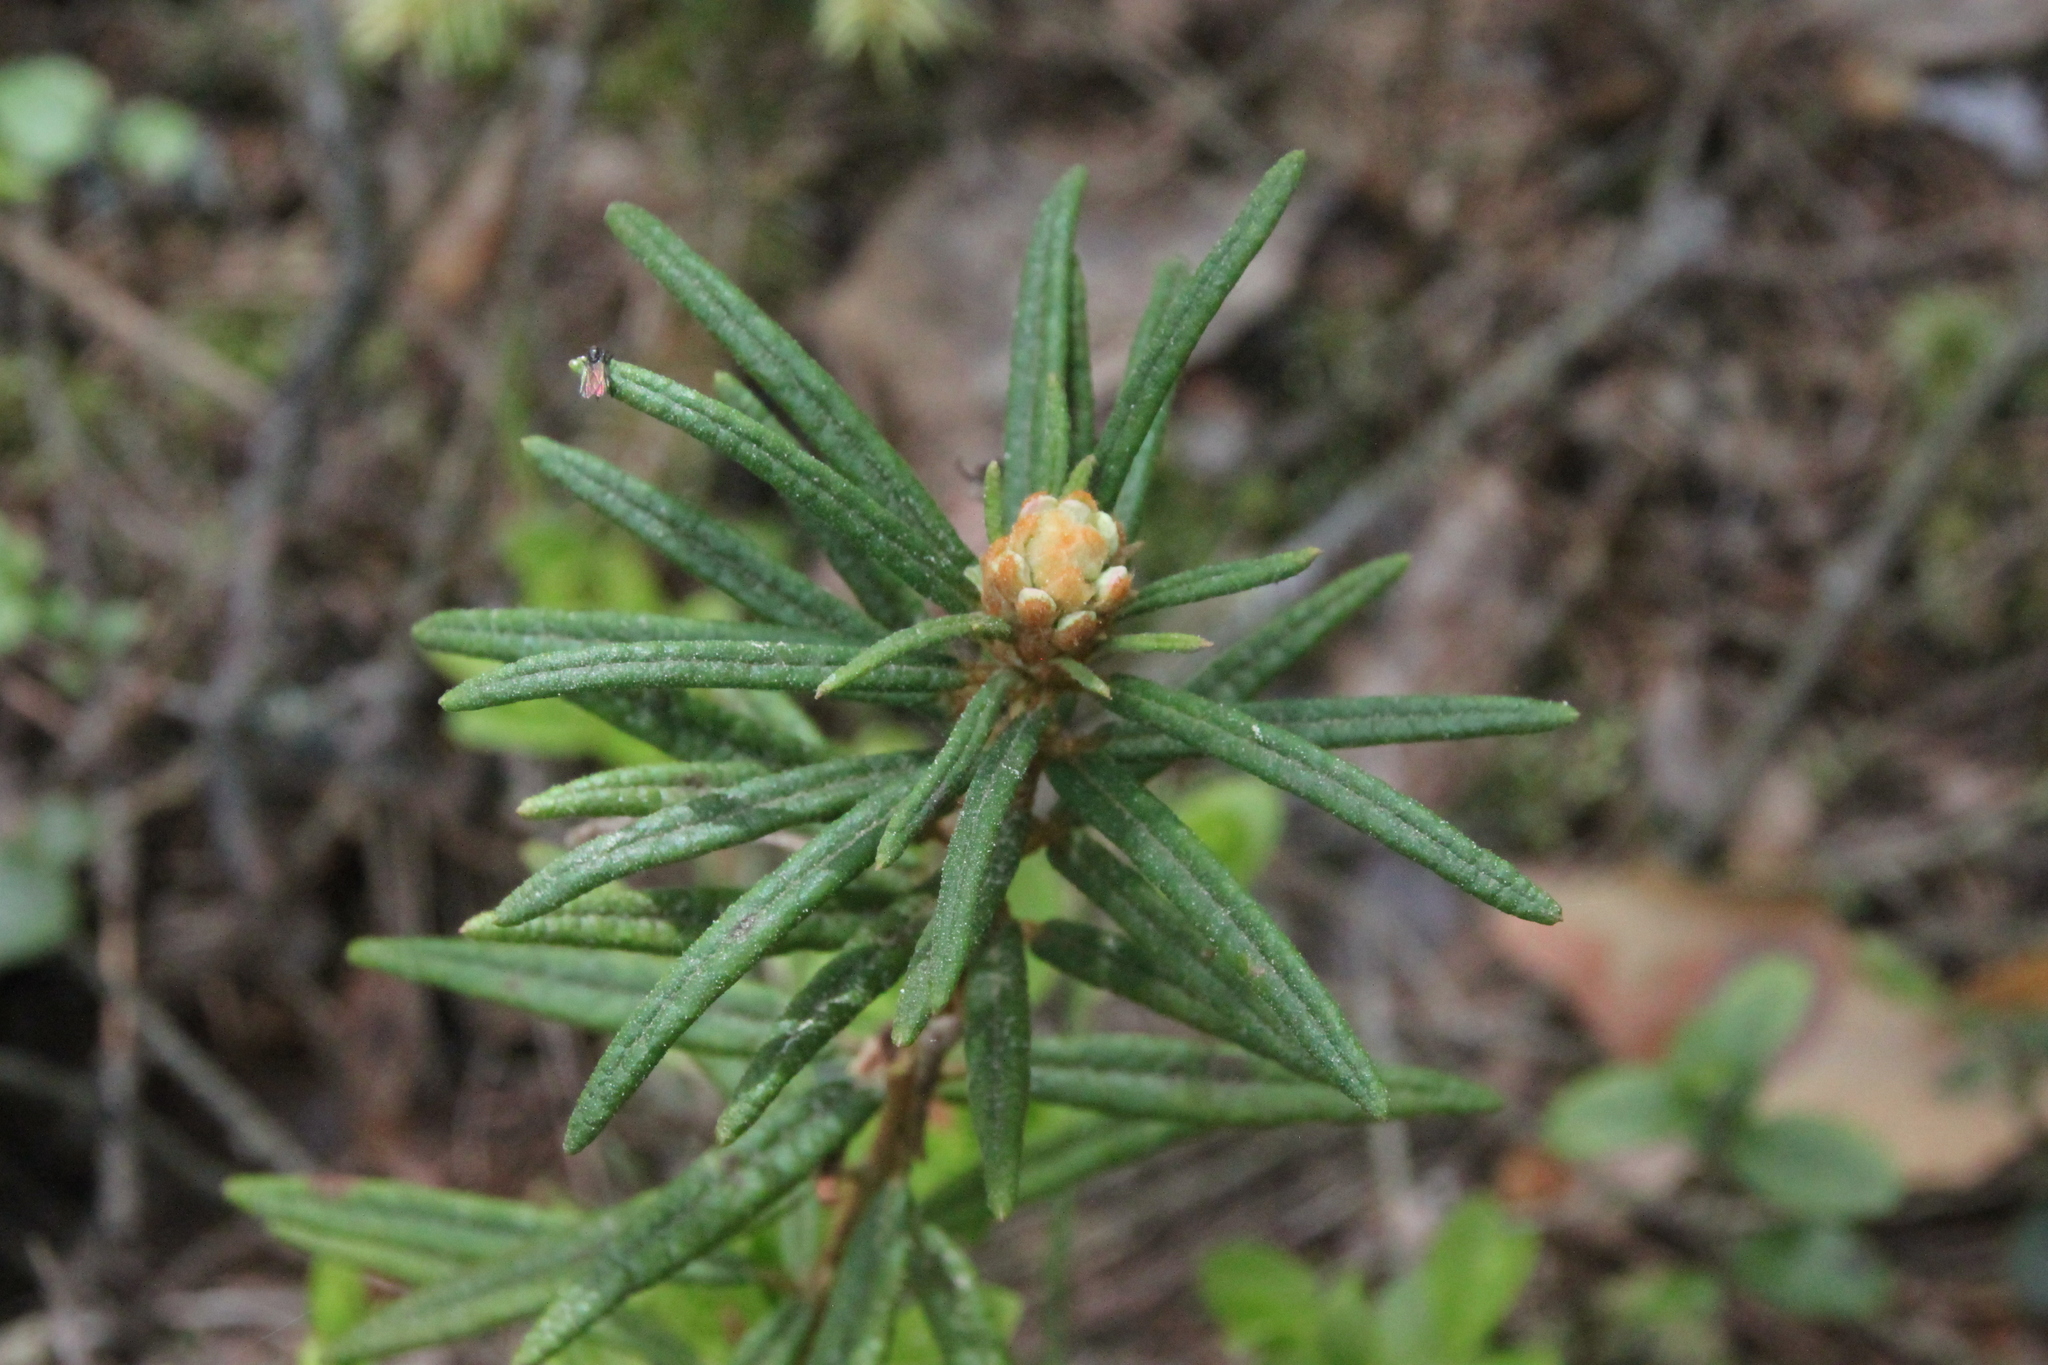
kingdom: Plantae
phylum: Tracheophyta
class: Magnoliopsida
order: Ericales
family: Ericaceae
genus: Rhododendron
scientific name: Rhododendron tomentosum
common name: Marsh labrador tea
